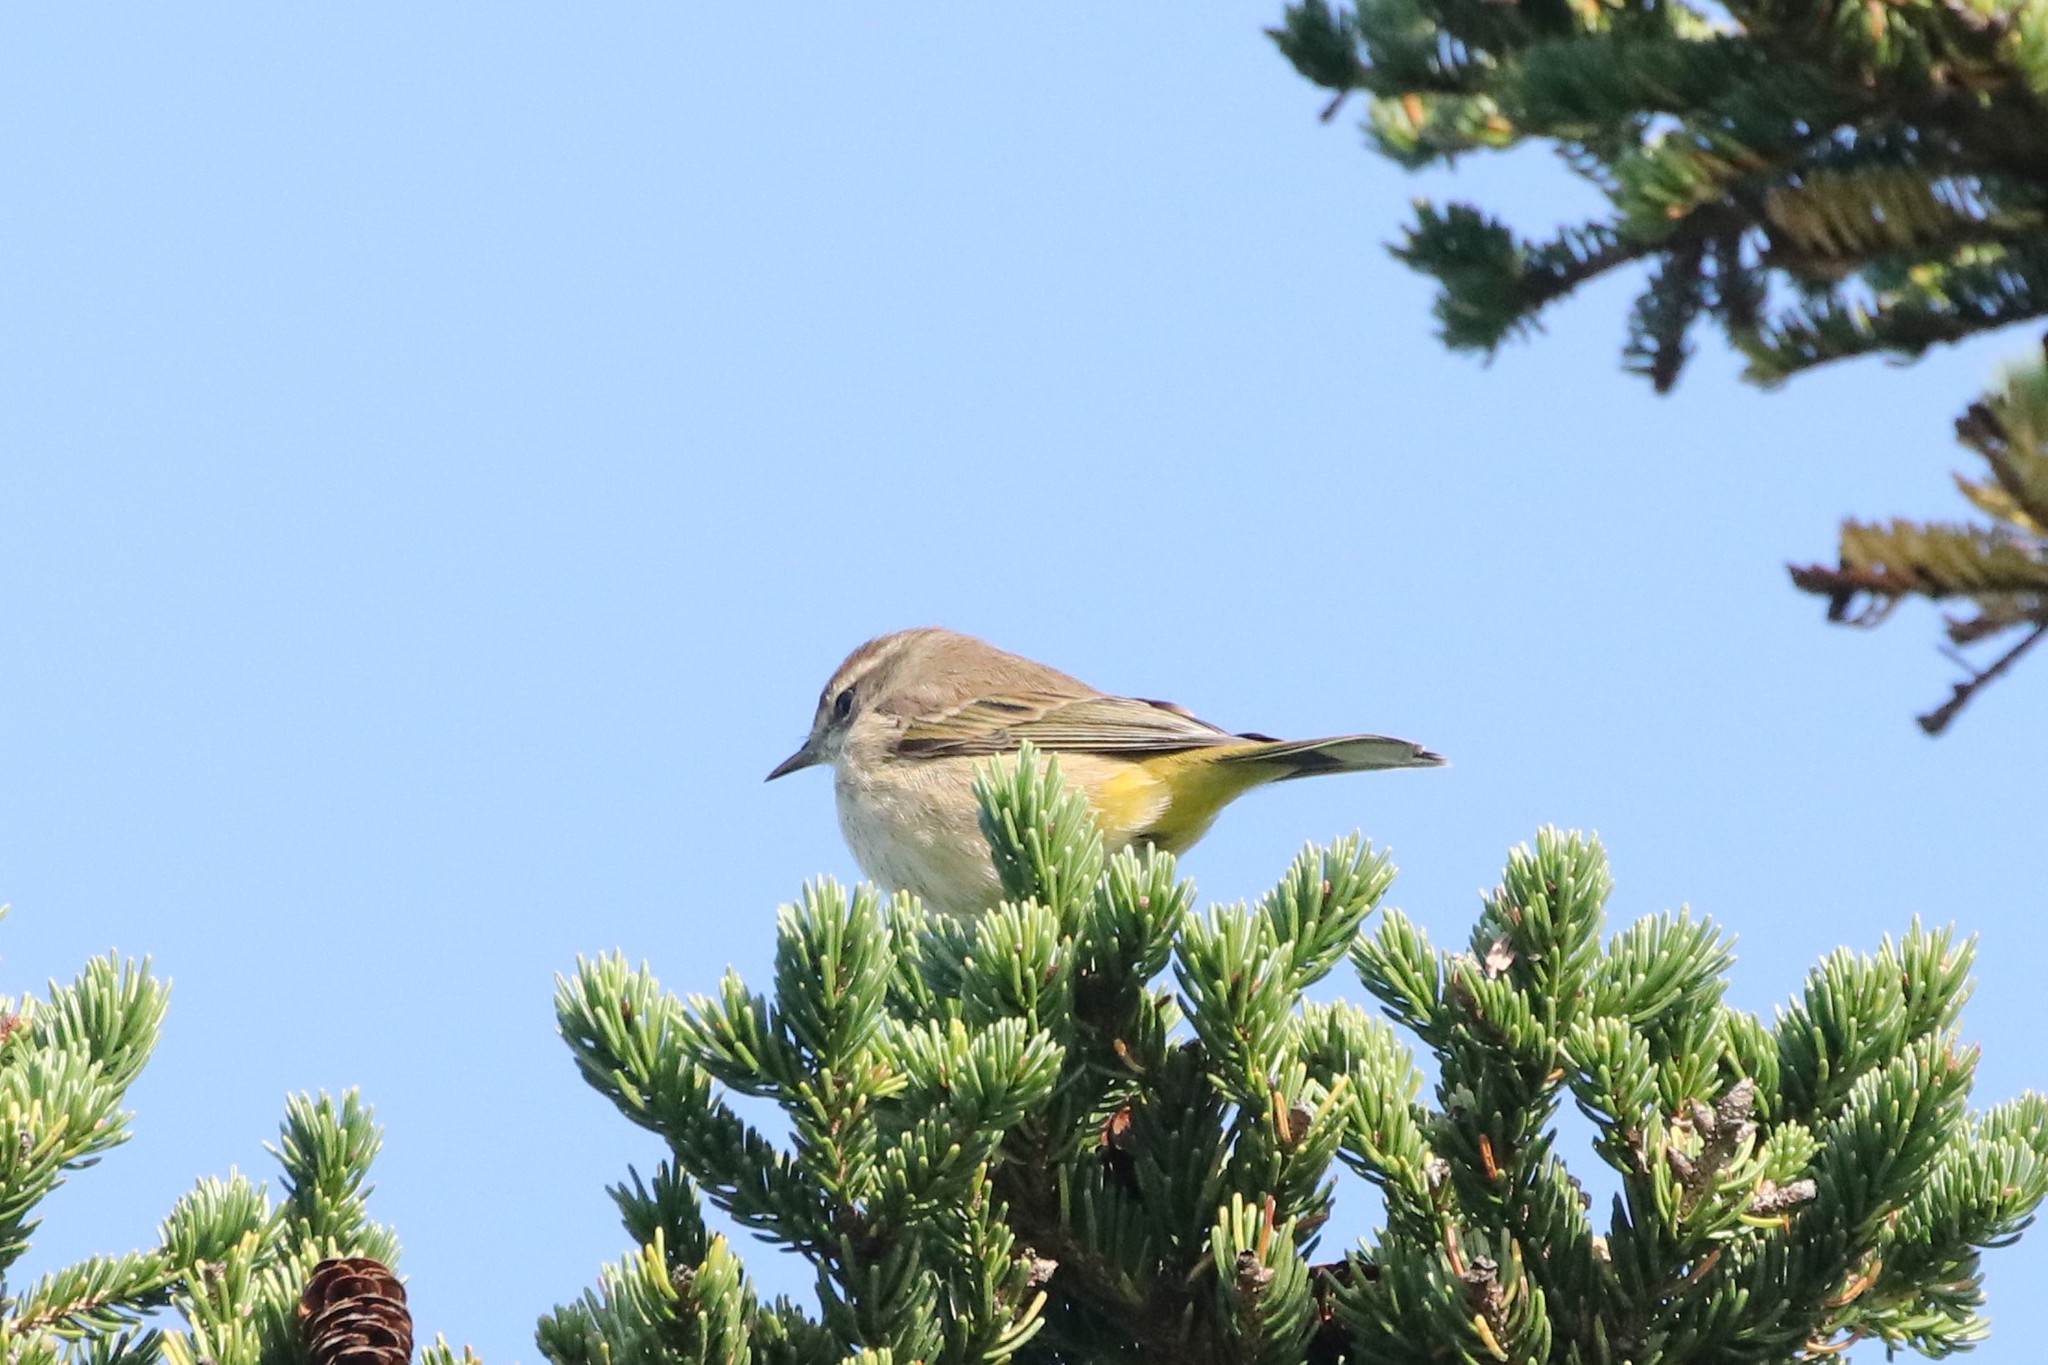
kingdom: Animalia
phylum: Chordata
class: Aves
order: Passeriformes
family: Parulidae
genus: Setophaga
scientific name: Setophaga palmarum
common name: Palm warbler
